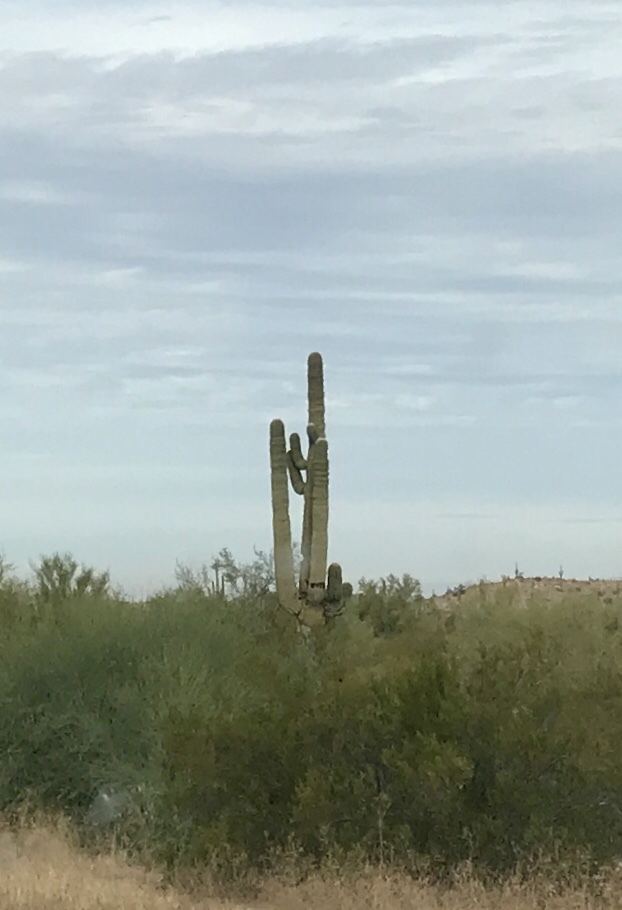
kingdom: Plantae
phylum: Tracheophyta
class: Magnoliopsida
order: Caryophyllales
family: Cactaceae
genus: Carnegiea
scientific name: Carnegiea gigantea
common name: Saguaro
